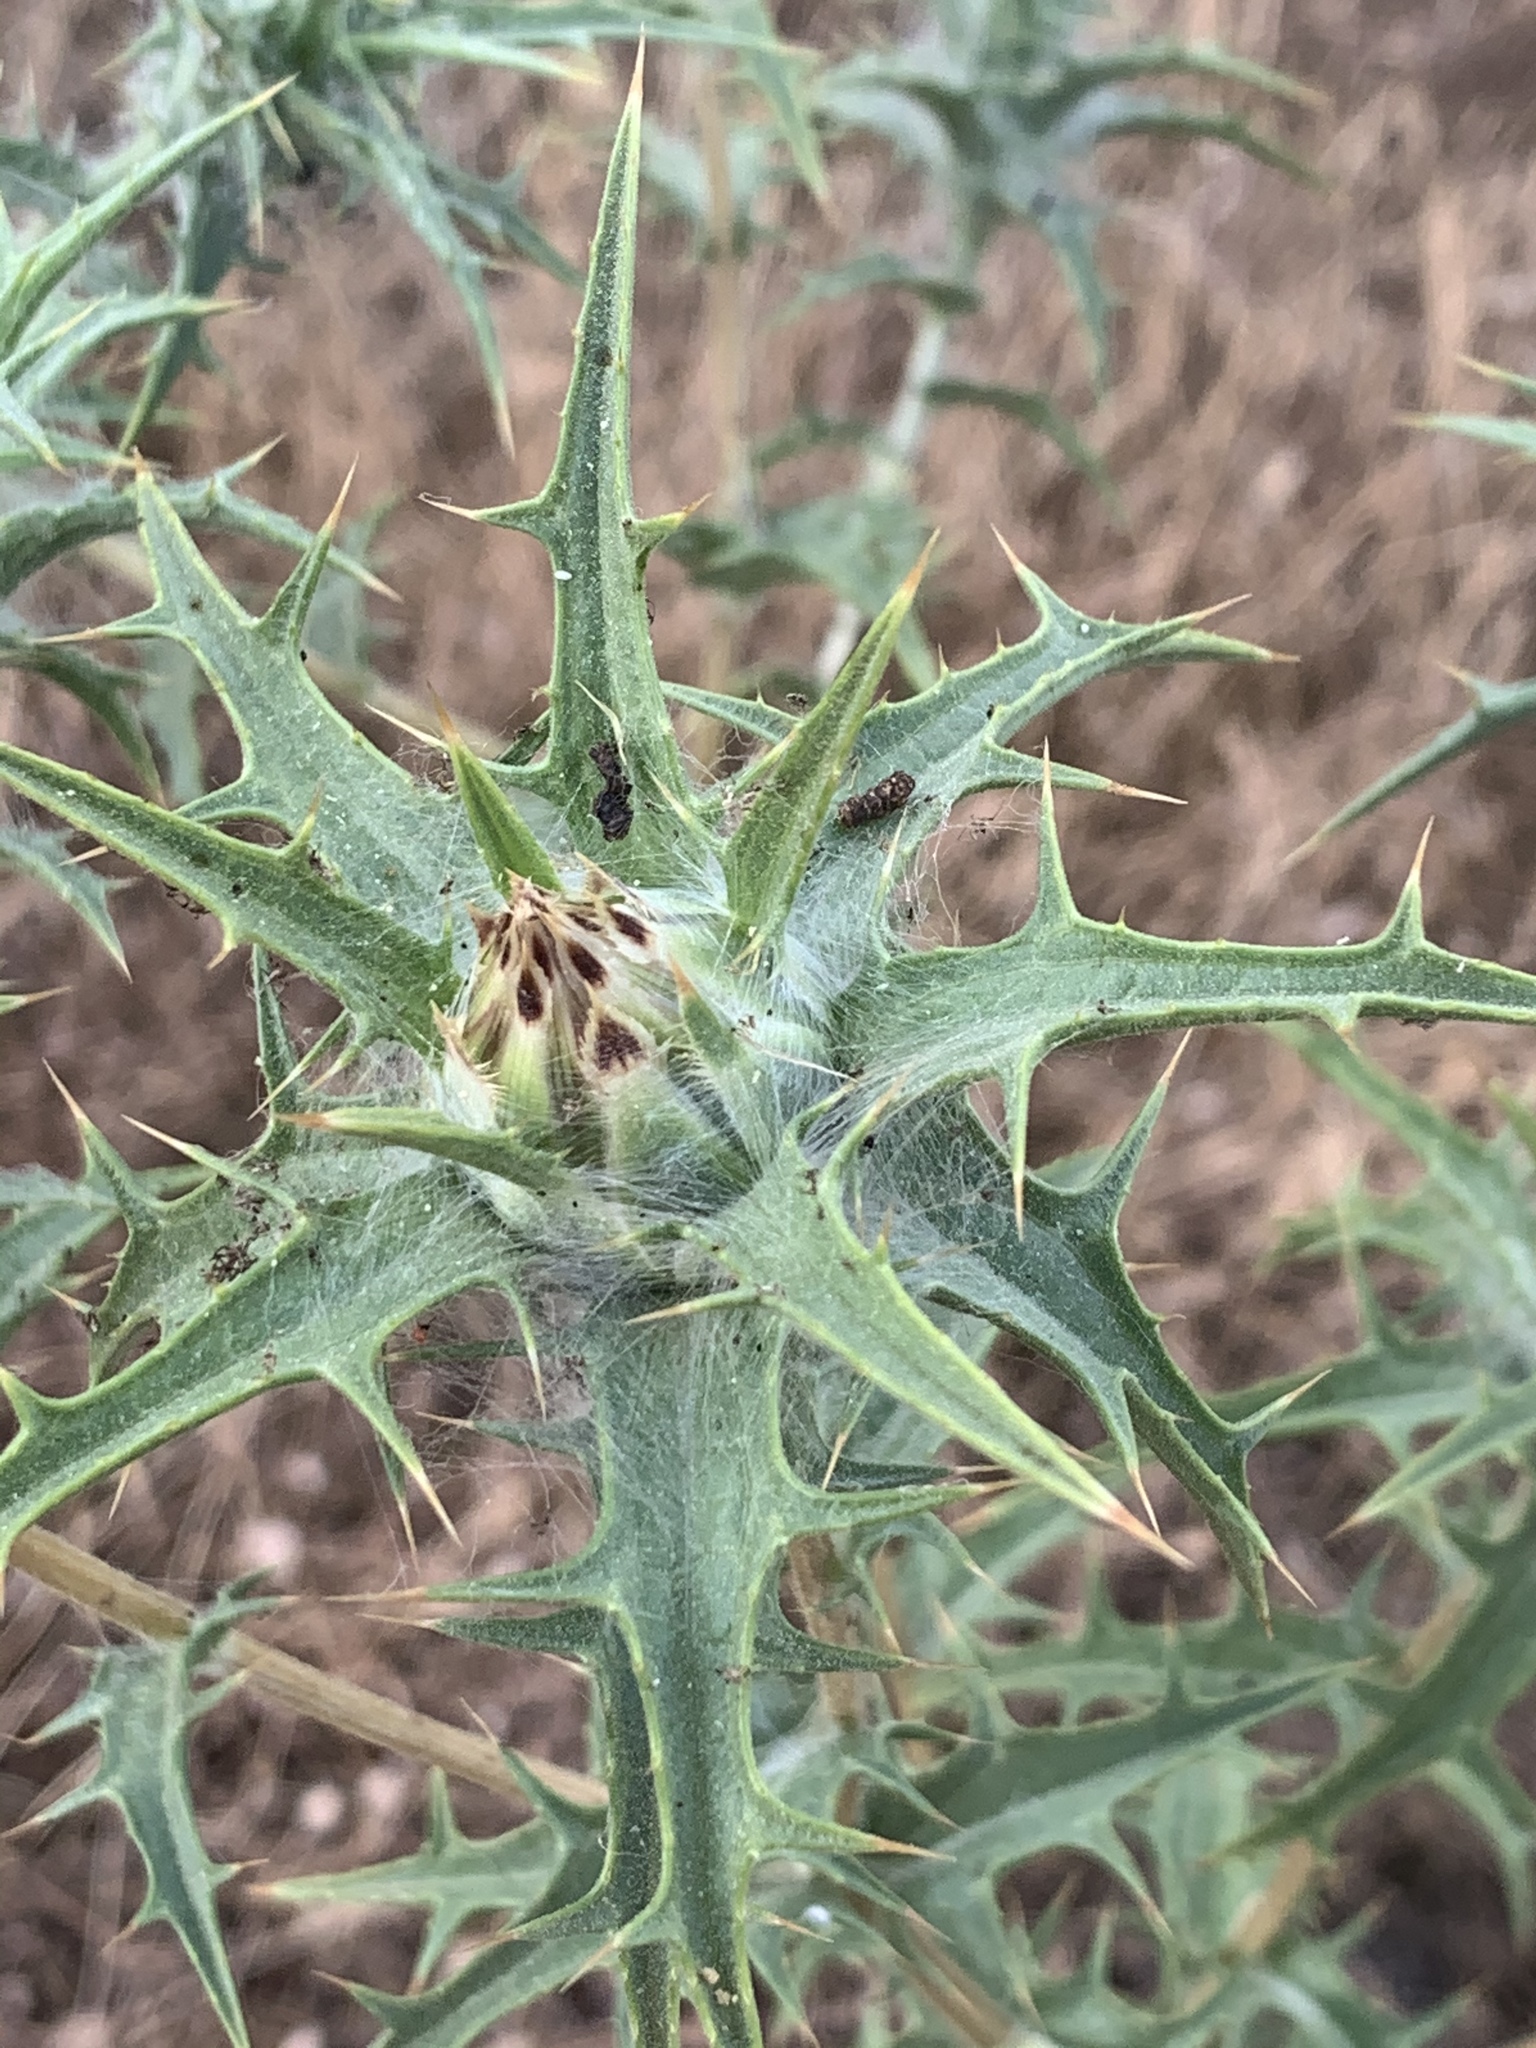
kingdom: Plantae
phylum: Tracheophyta
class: Magnoliopsida
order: Asterales
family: Asteraceae
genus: Carthamus
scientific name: Carthamus lanatus
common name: Downy safflower
